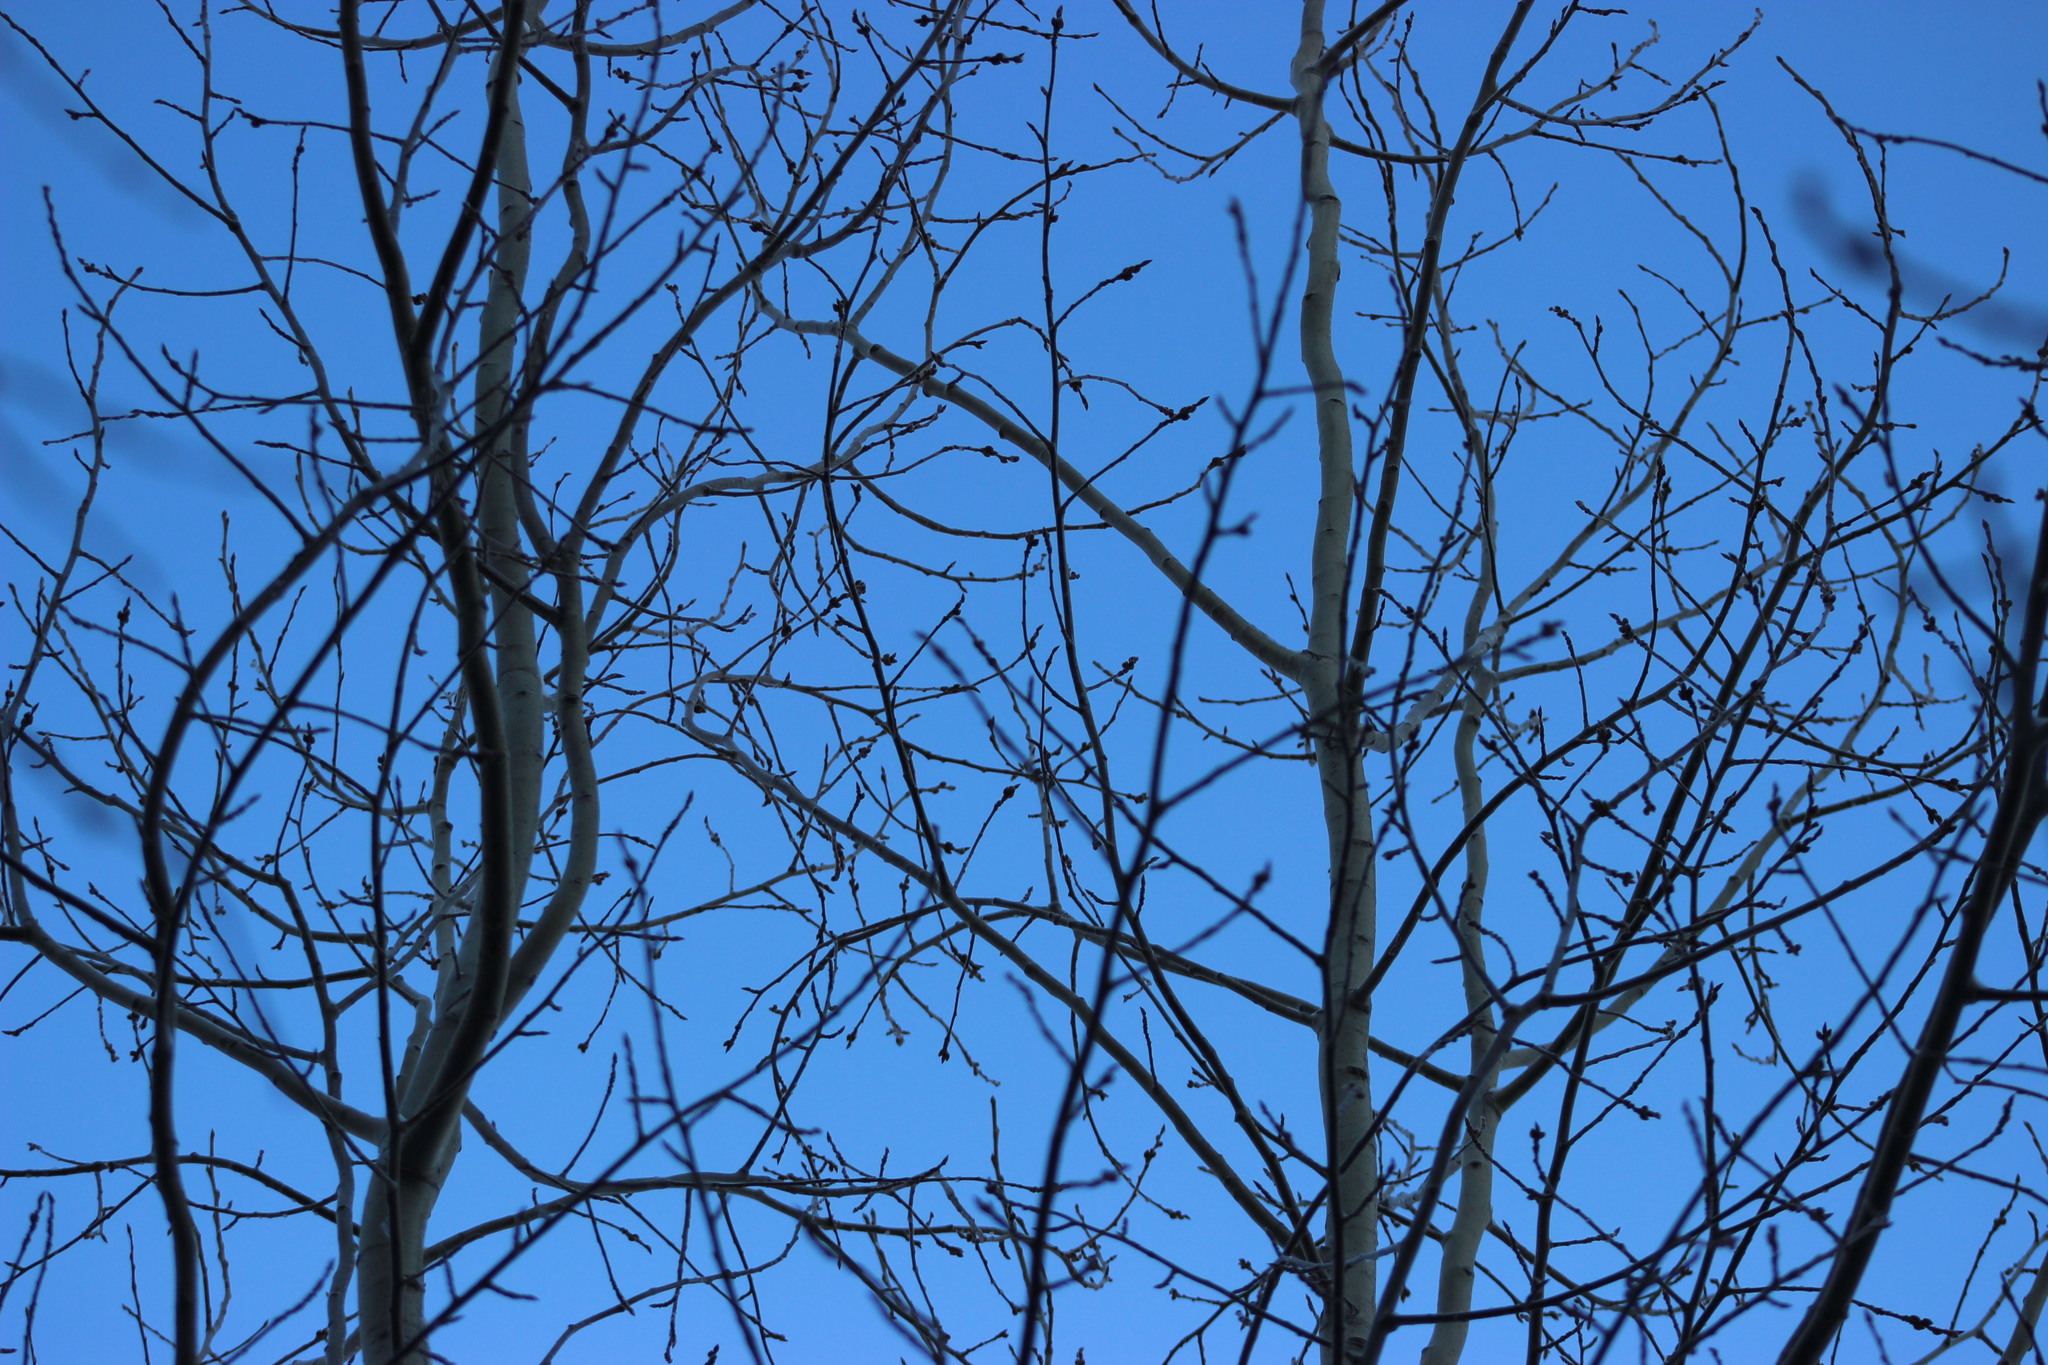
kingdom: Plantae
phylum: Tracheophyta
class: Magnoliopsida
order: Malpighiales
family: Salicaceae
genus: Populus
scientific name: Populus tremula
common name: European aspen
